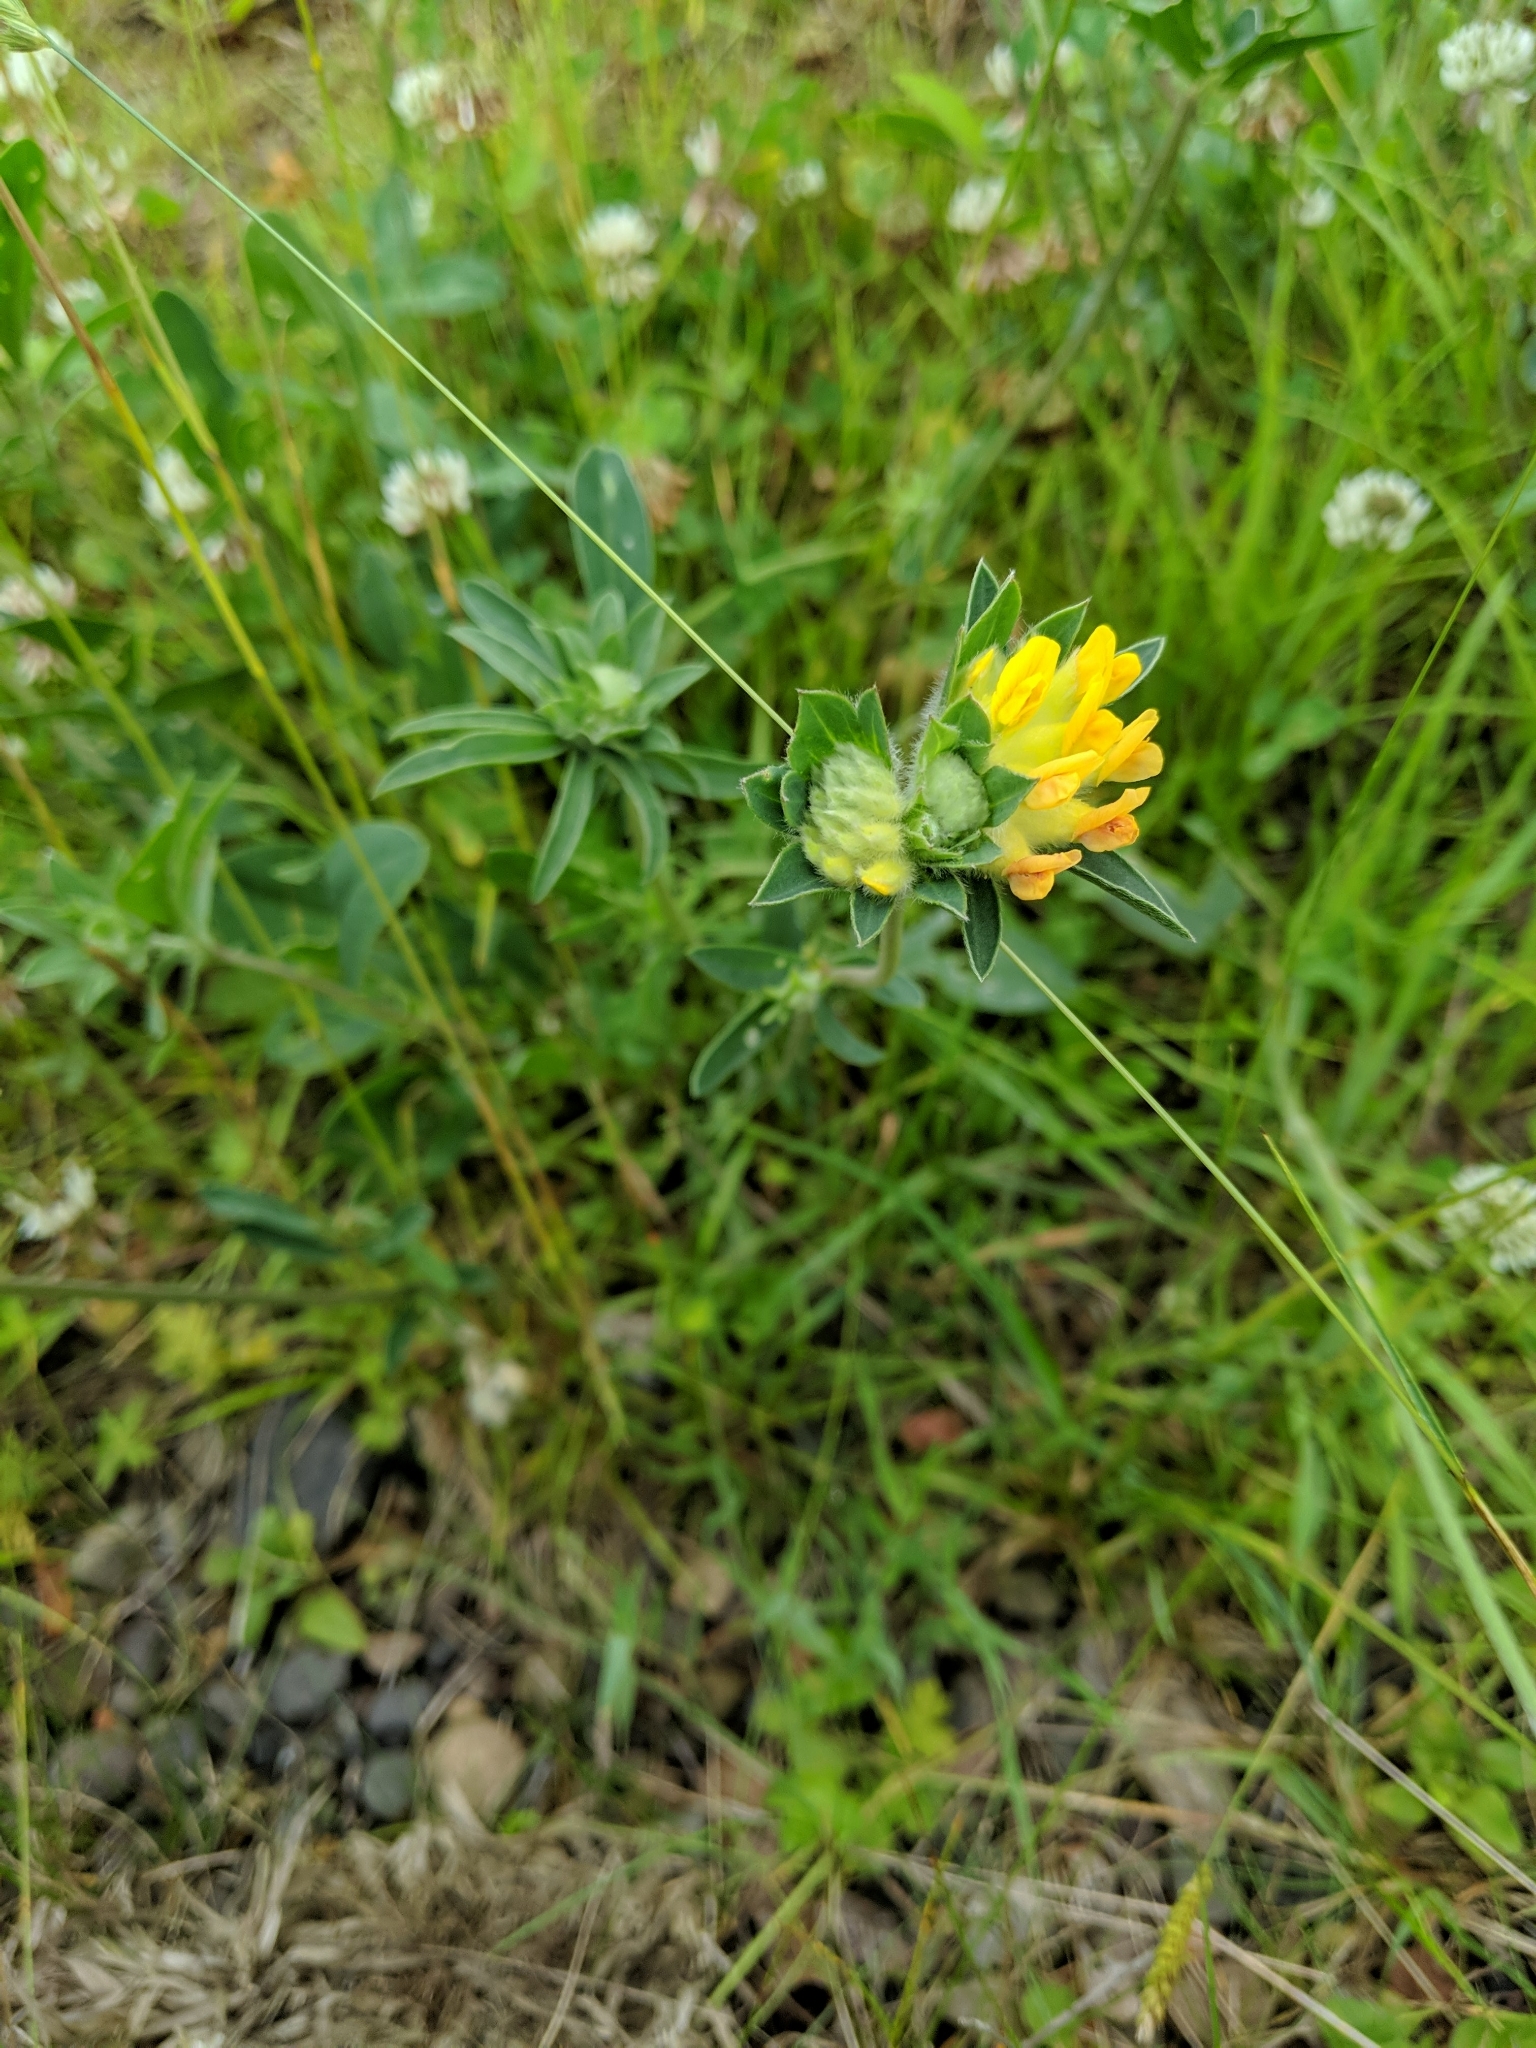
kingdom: Plantae
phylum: Tracheophyta
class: Magnoliopsida
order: Fabales
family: Fabaceae
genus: Anthyllis
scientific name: Anthyllis vulneraria
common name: Kidney vetch
